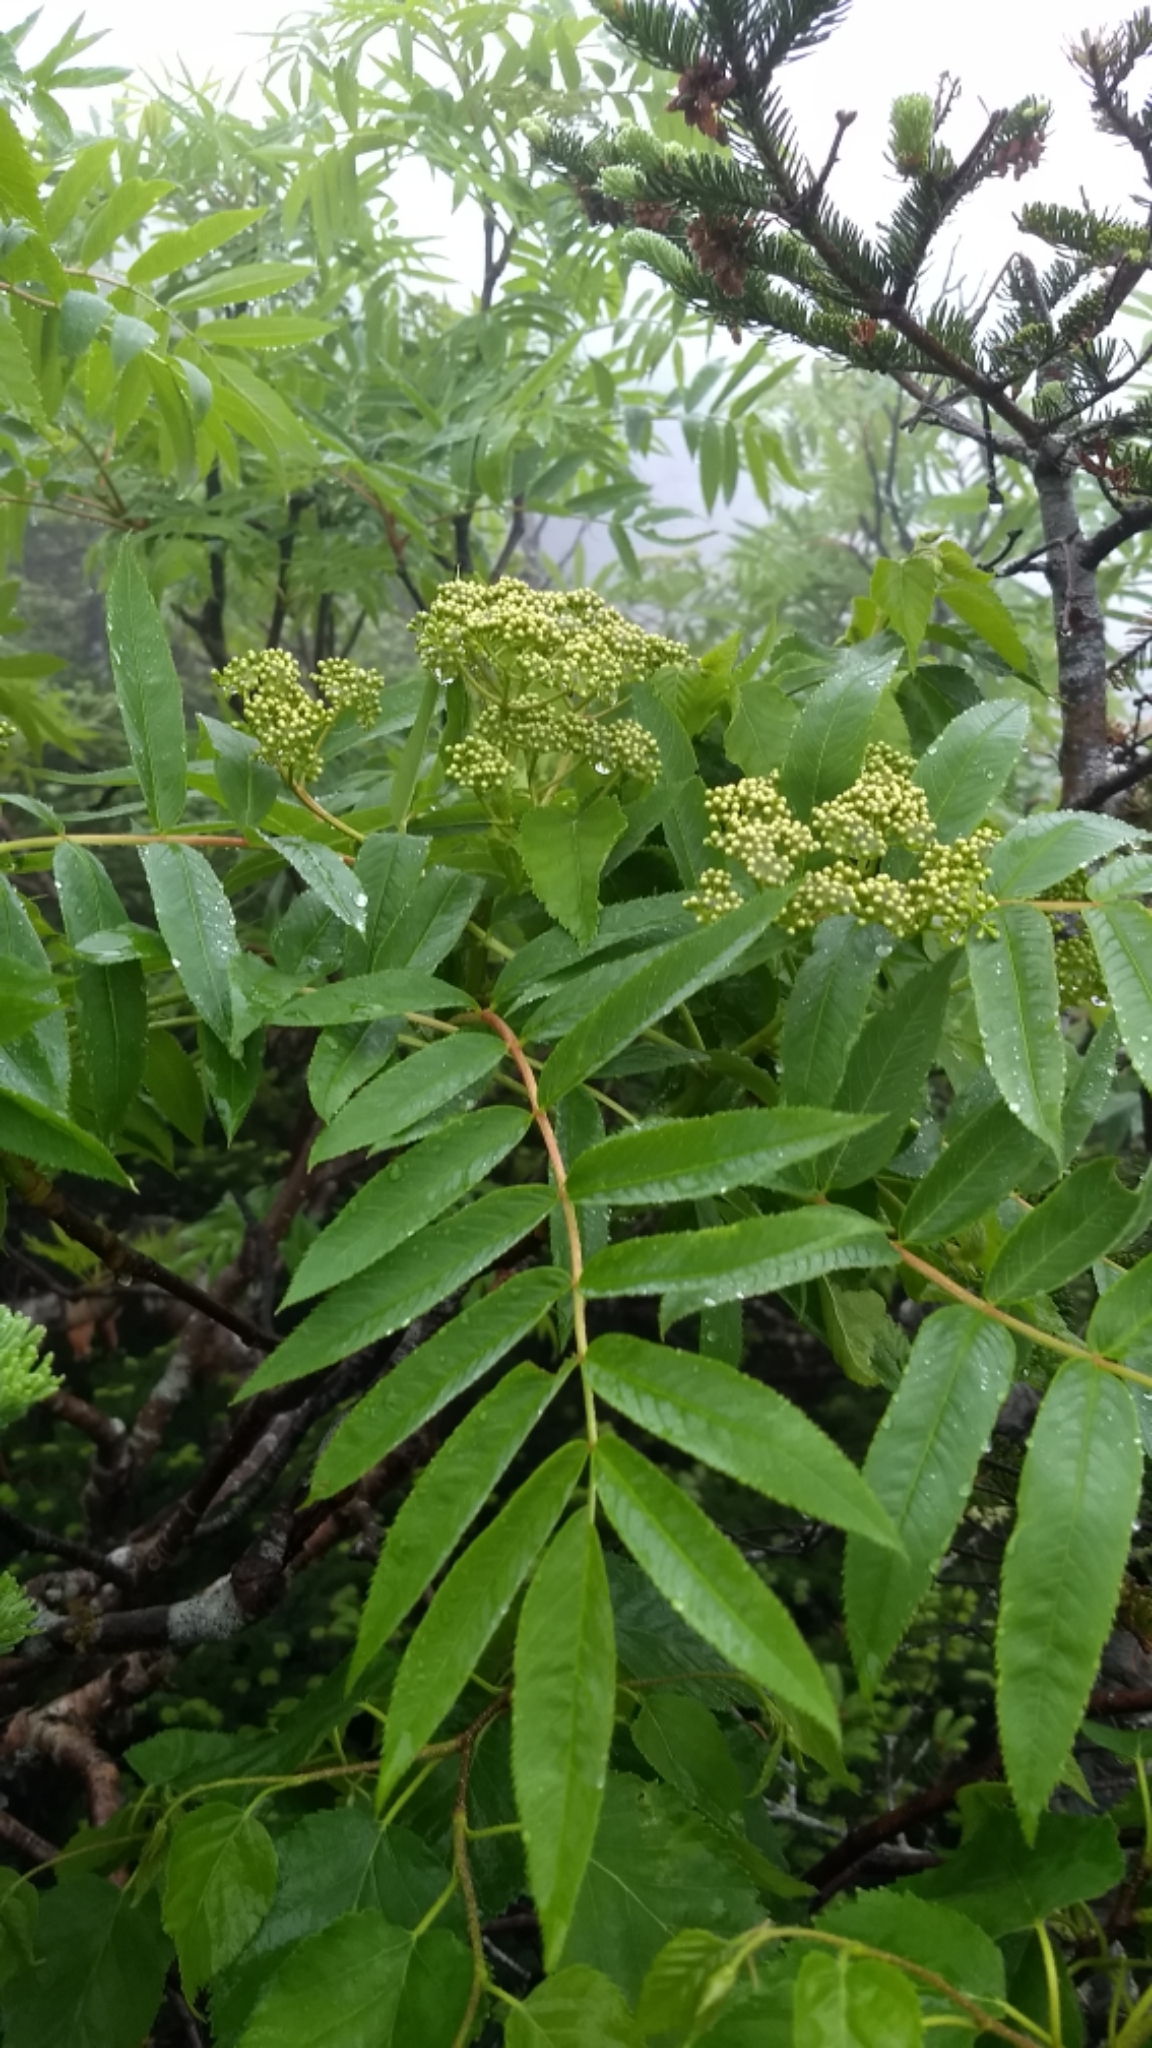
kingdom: Plantae
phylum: Tracheophyta
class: Magnoliopsida
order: Rosales
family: Rosaceae
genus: Sorbus
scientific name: Sorbus americana
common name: American mountain-ash
